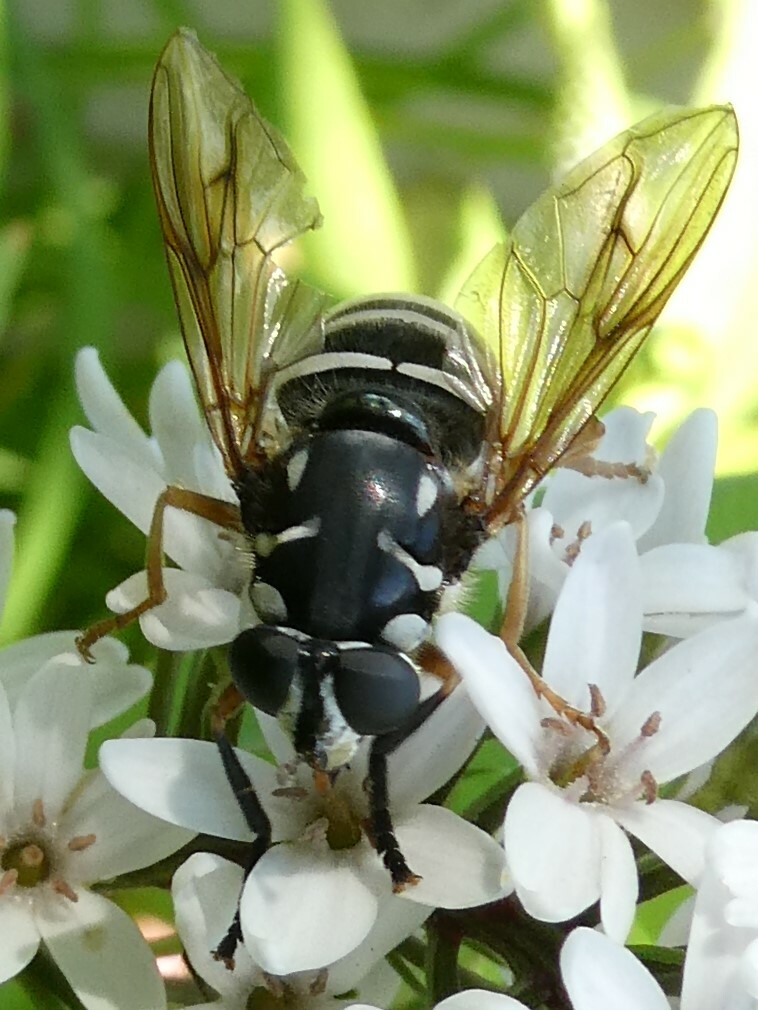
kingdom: Animalia
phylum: Arthropoda
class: Insecta
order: Diptera
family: Syrphidae
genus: Temnostoma
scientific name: Temnostoma excentricum
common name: Black-spotted falsehorn
